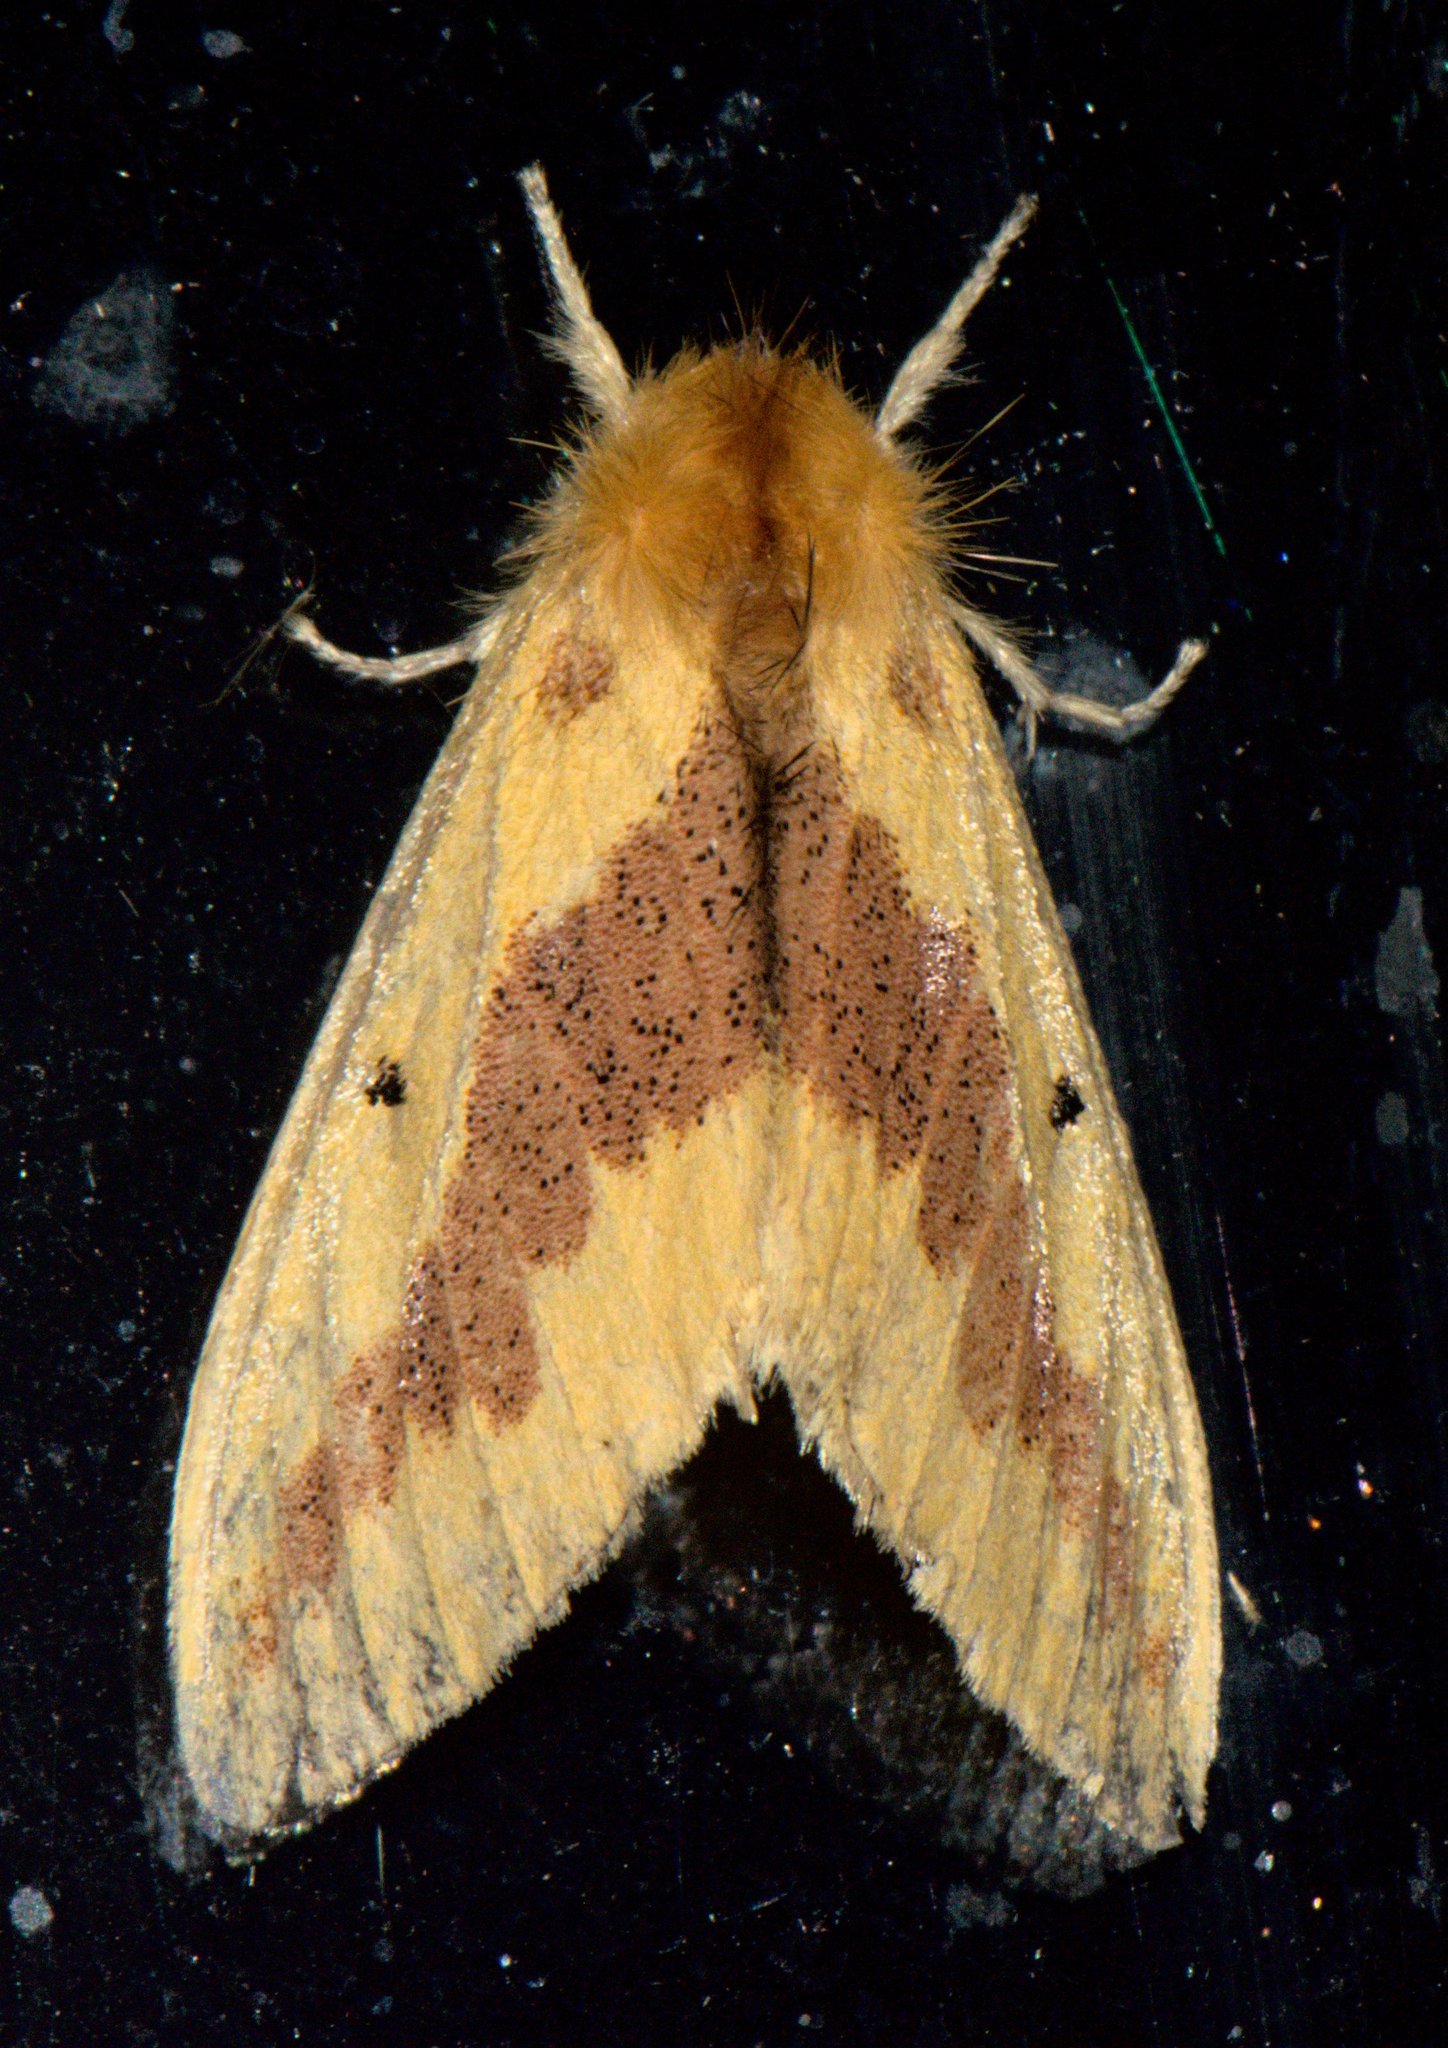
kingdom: Animalia
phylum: Arthropoda
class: Insecta
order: Lepidoptera
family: Erebidae
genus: Euproctis
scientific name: Euproctis varia
